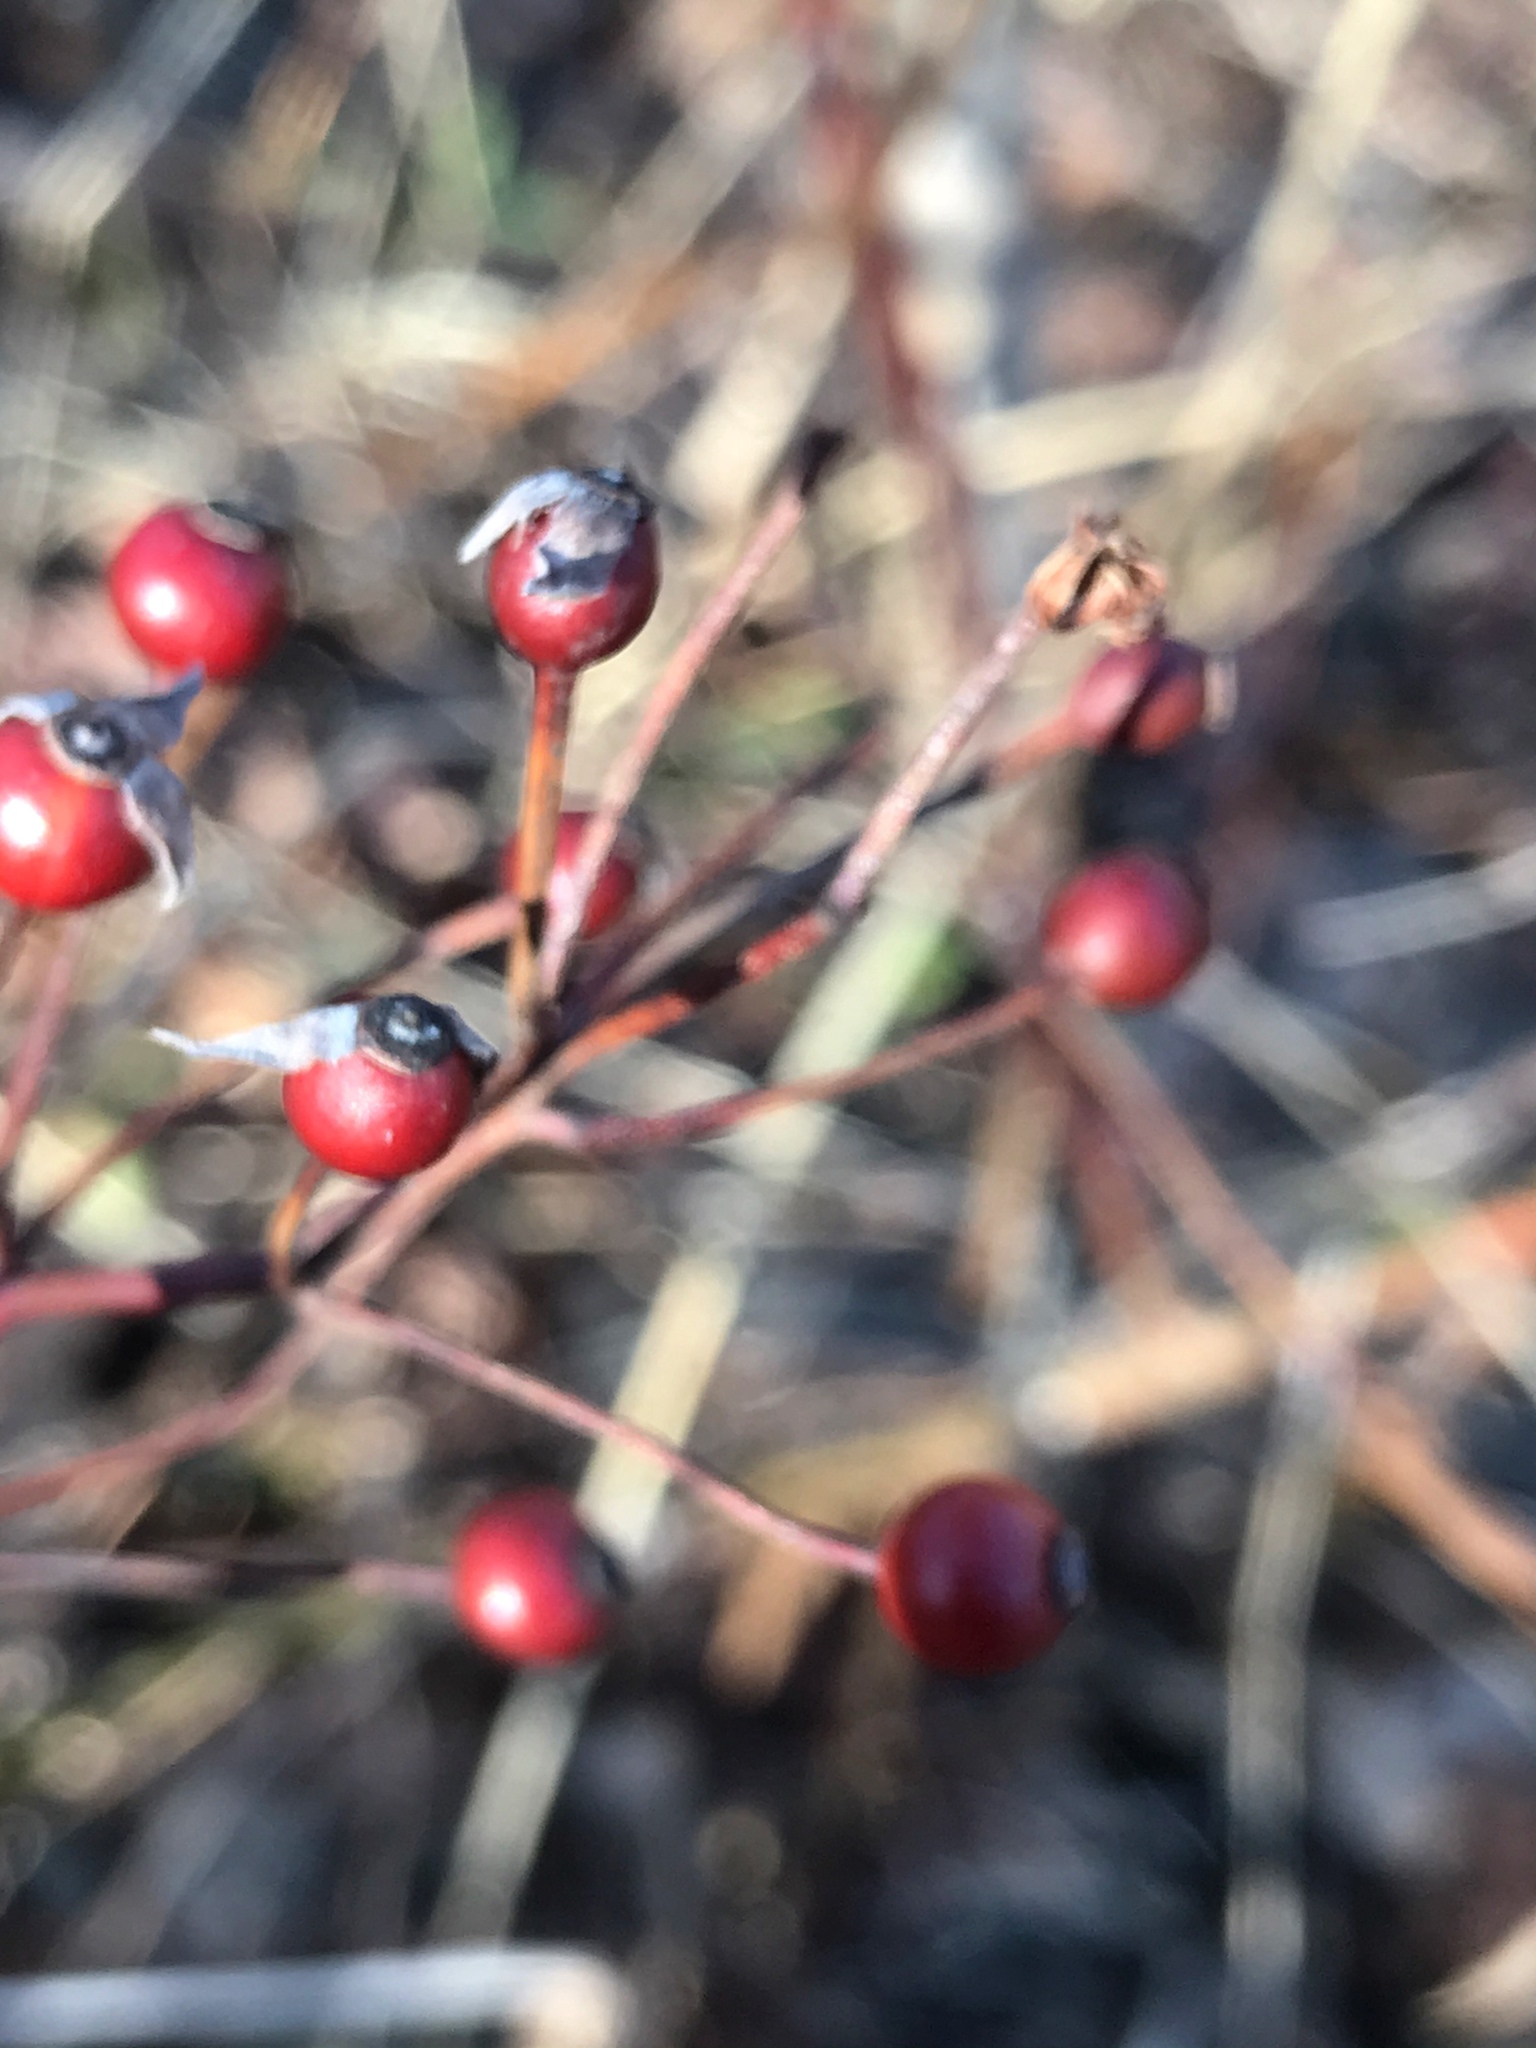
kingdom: Plantae
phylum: Tracheophyta
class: Magnoliopsida
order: Rosales
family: Rosaceae
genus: Rosa
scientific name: Rosa multiflora
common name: Multiflora rose
